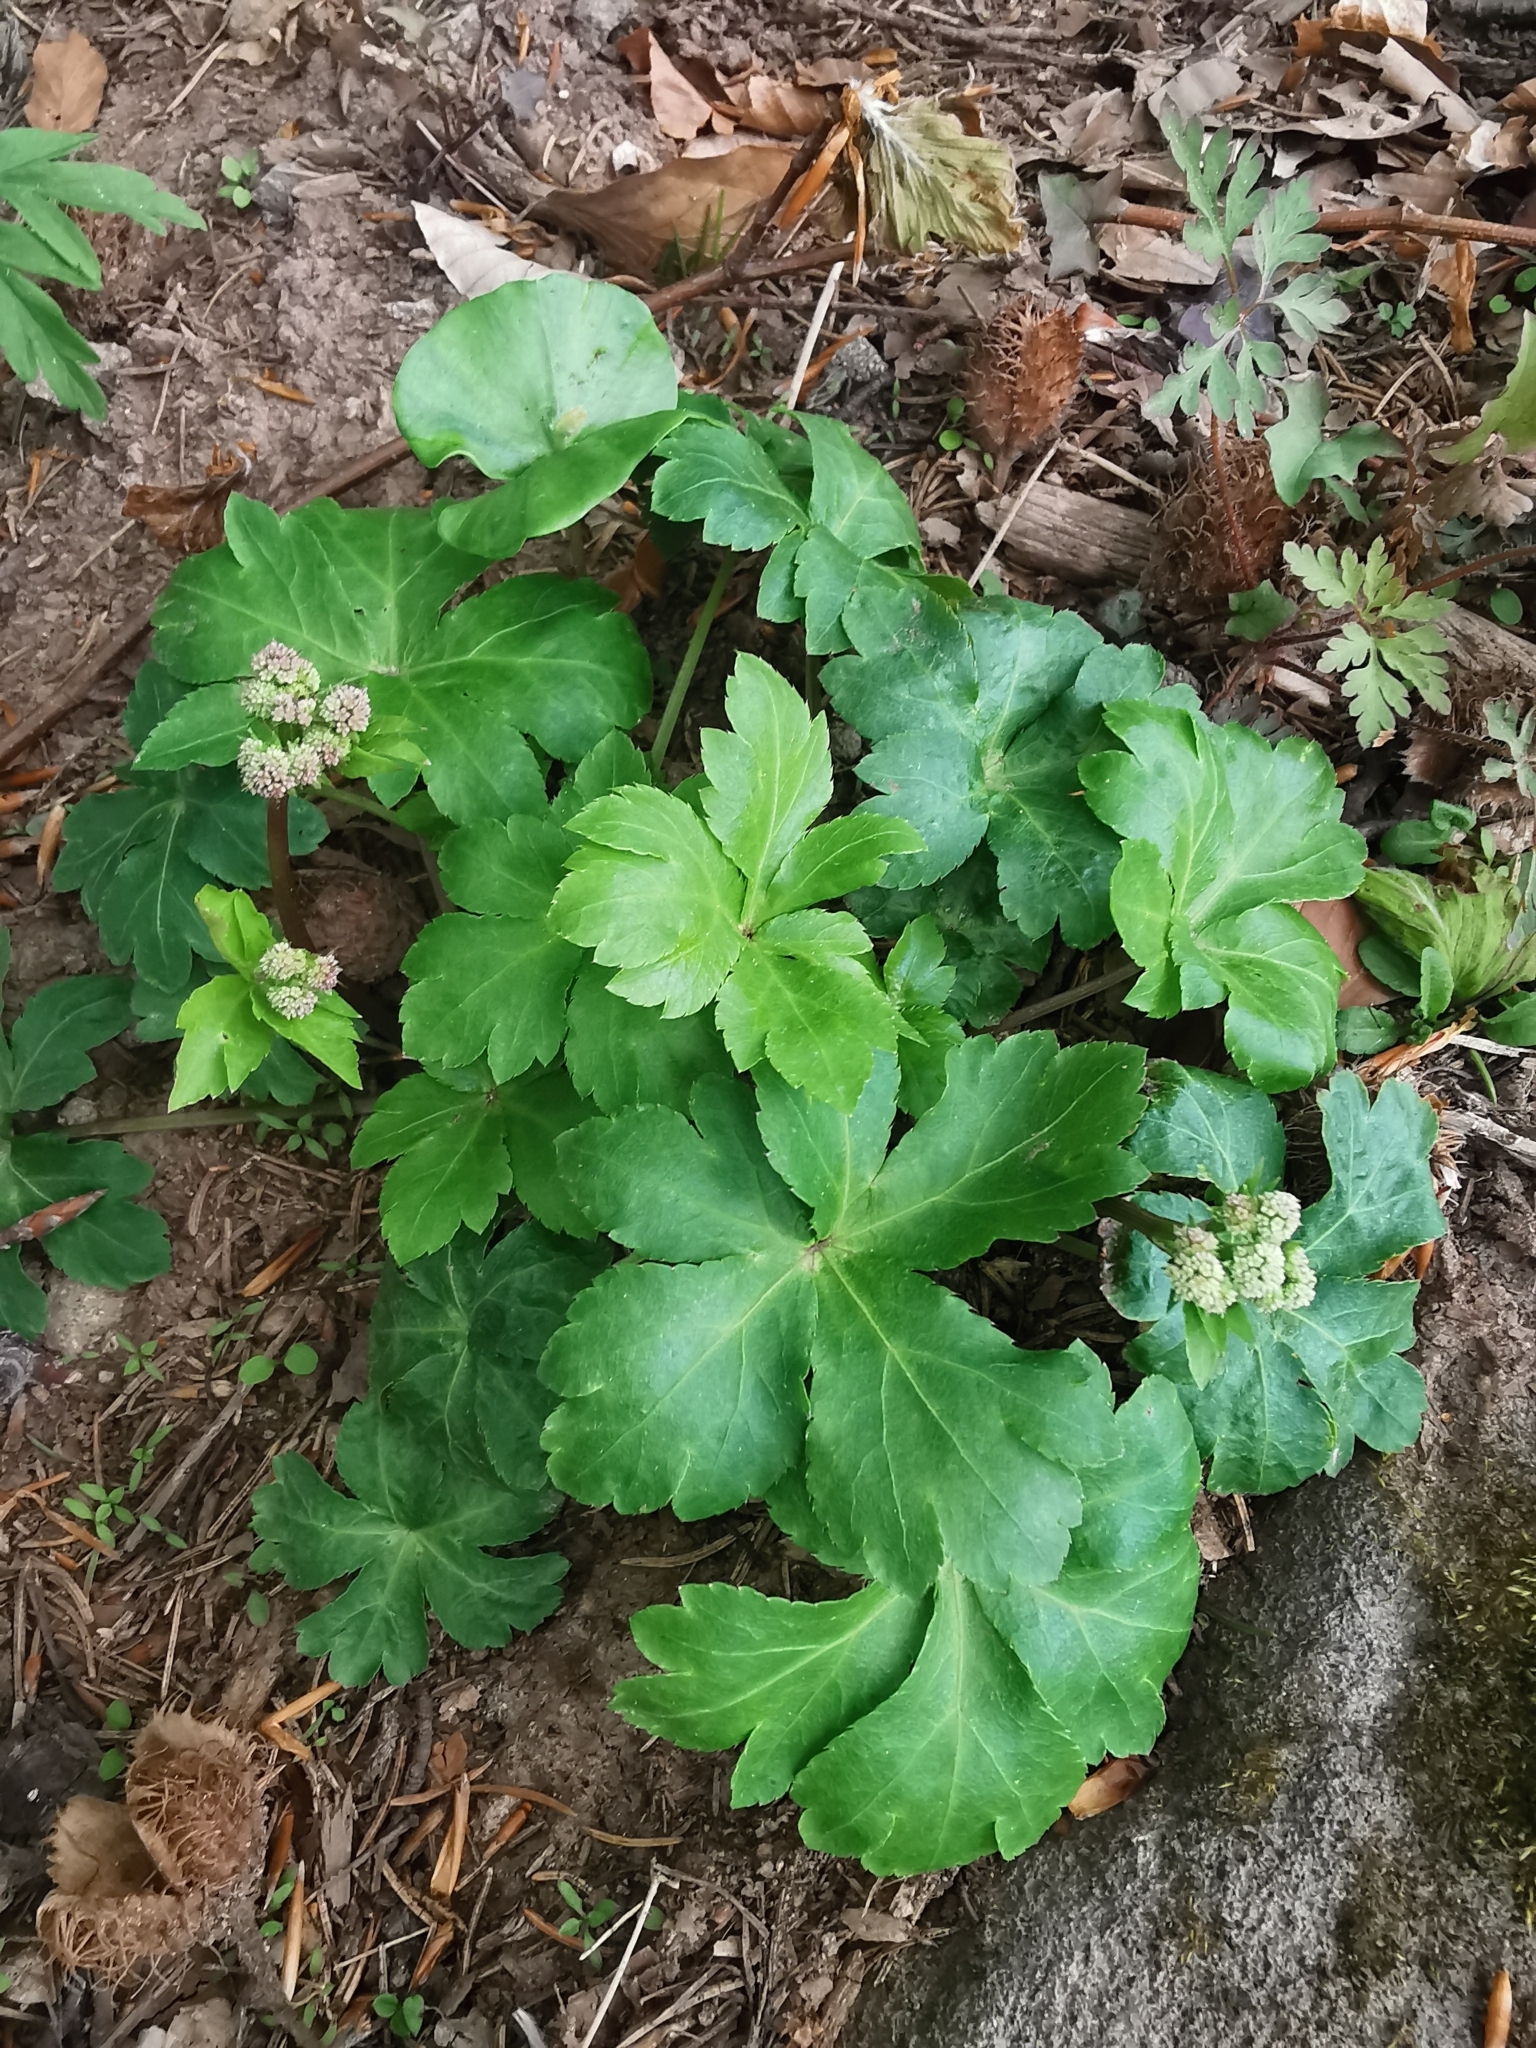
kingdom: Plantae
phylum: Tracheophyta
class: Magnoliopsida
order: Apiales
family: Apiaceae
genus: Sanicula
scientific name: Sanicula europaea
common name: Sanicle
